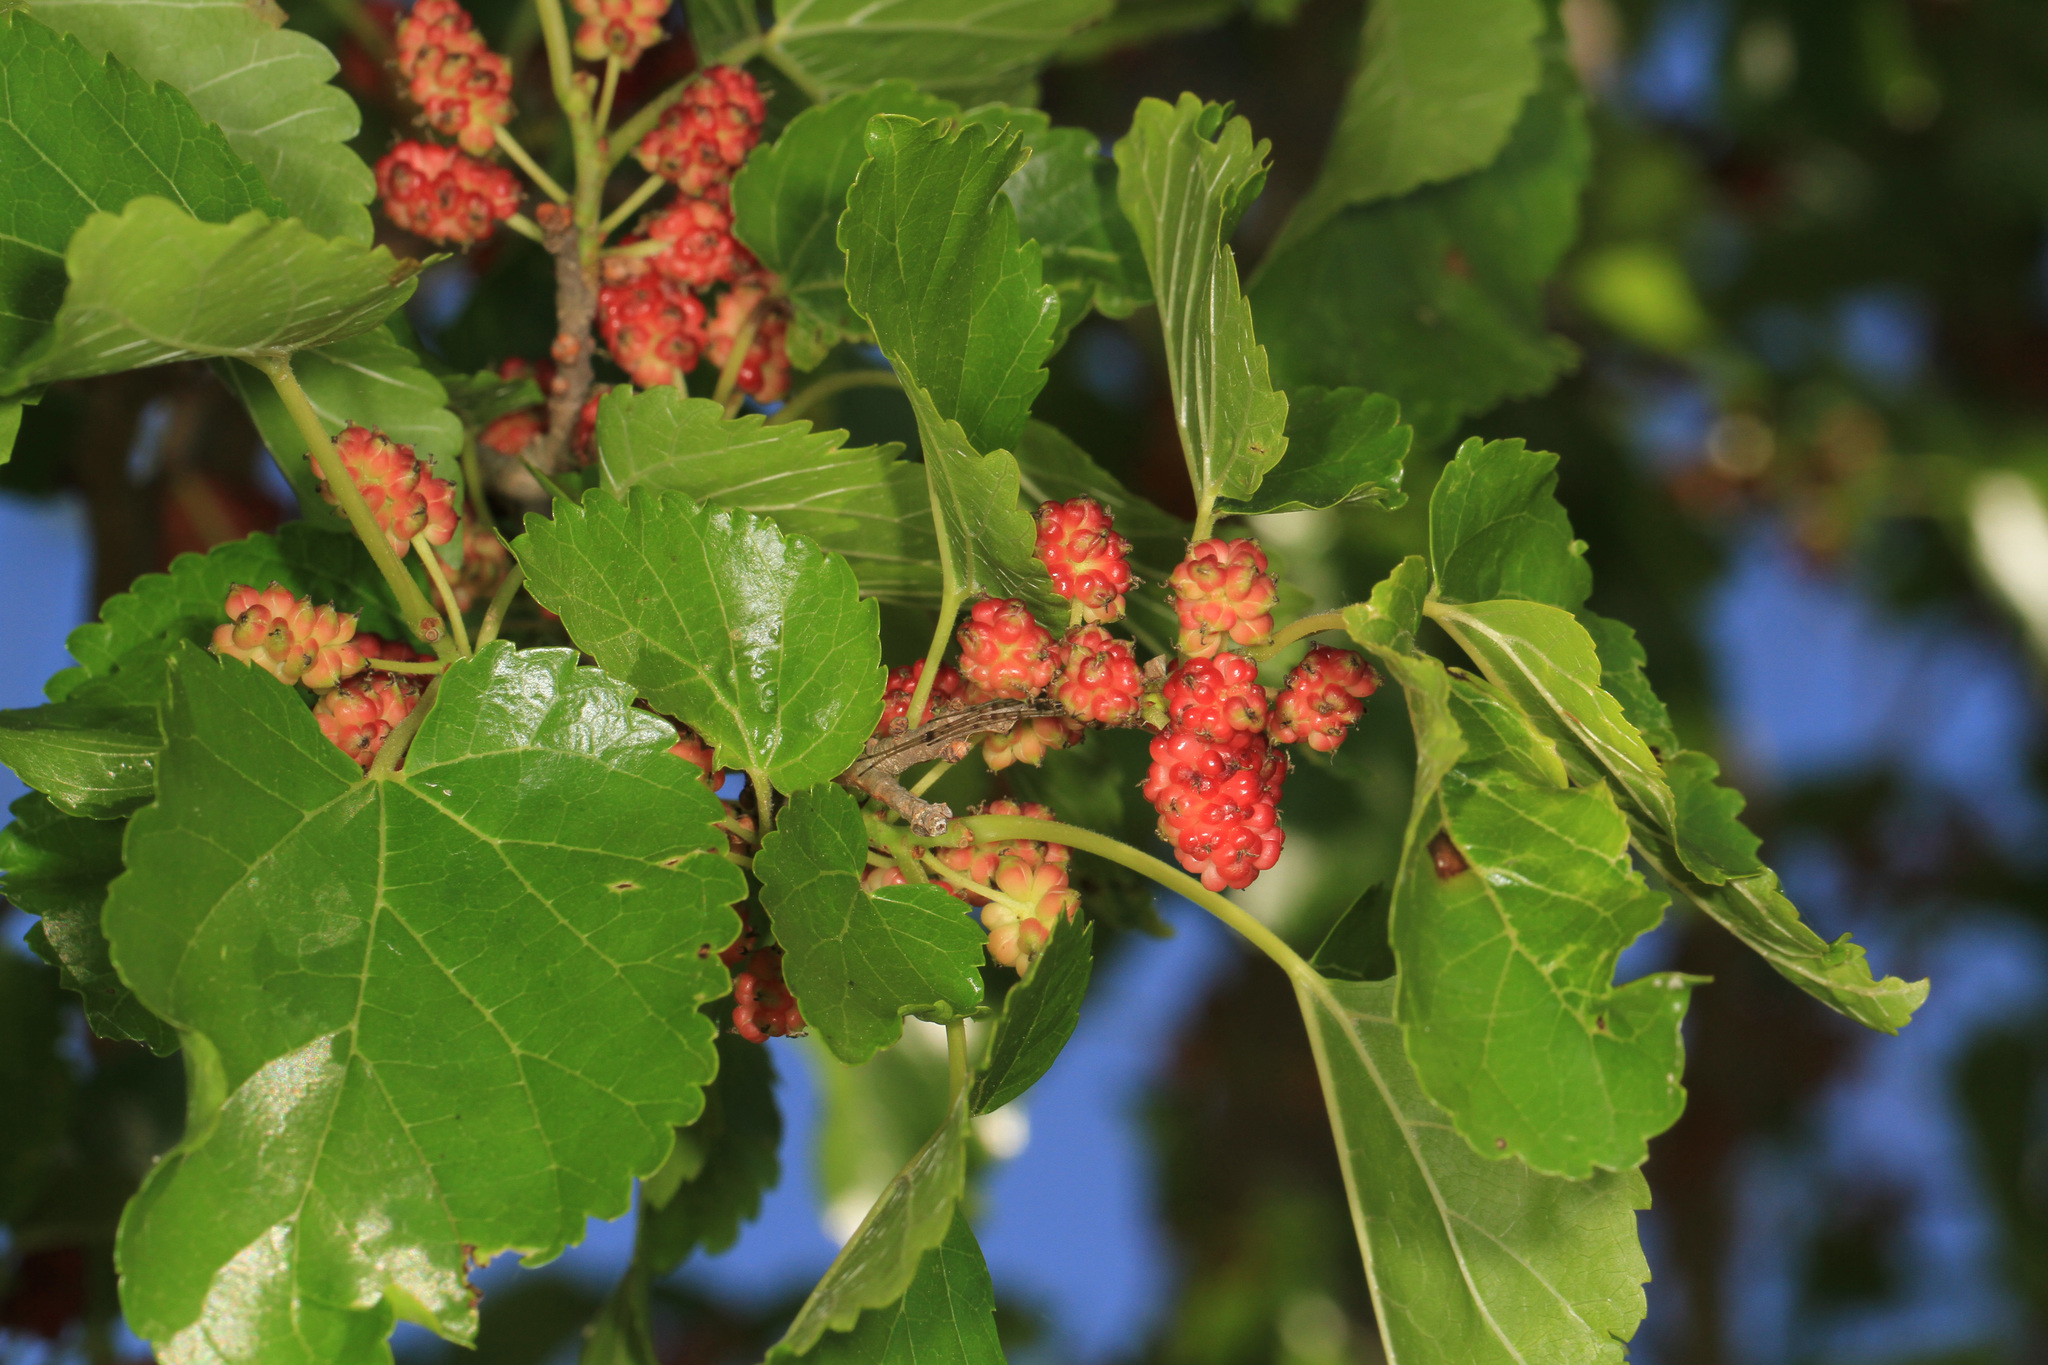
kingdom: Plantae
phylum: Tracheophyta
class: Magnoliopsida
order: Rosales
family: Moraceae
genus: Morus
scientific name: Morus alba
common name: White mulberry
